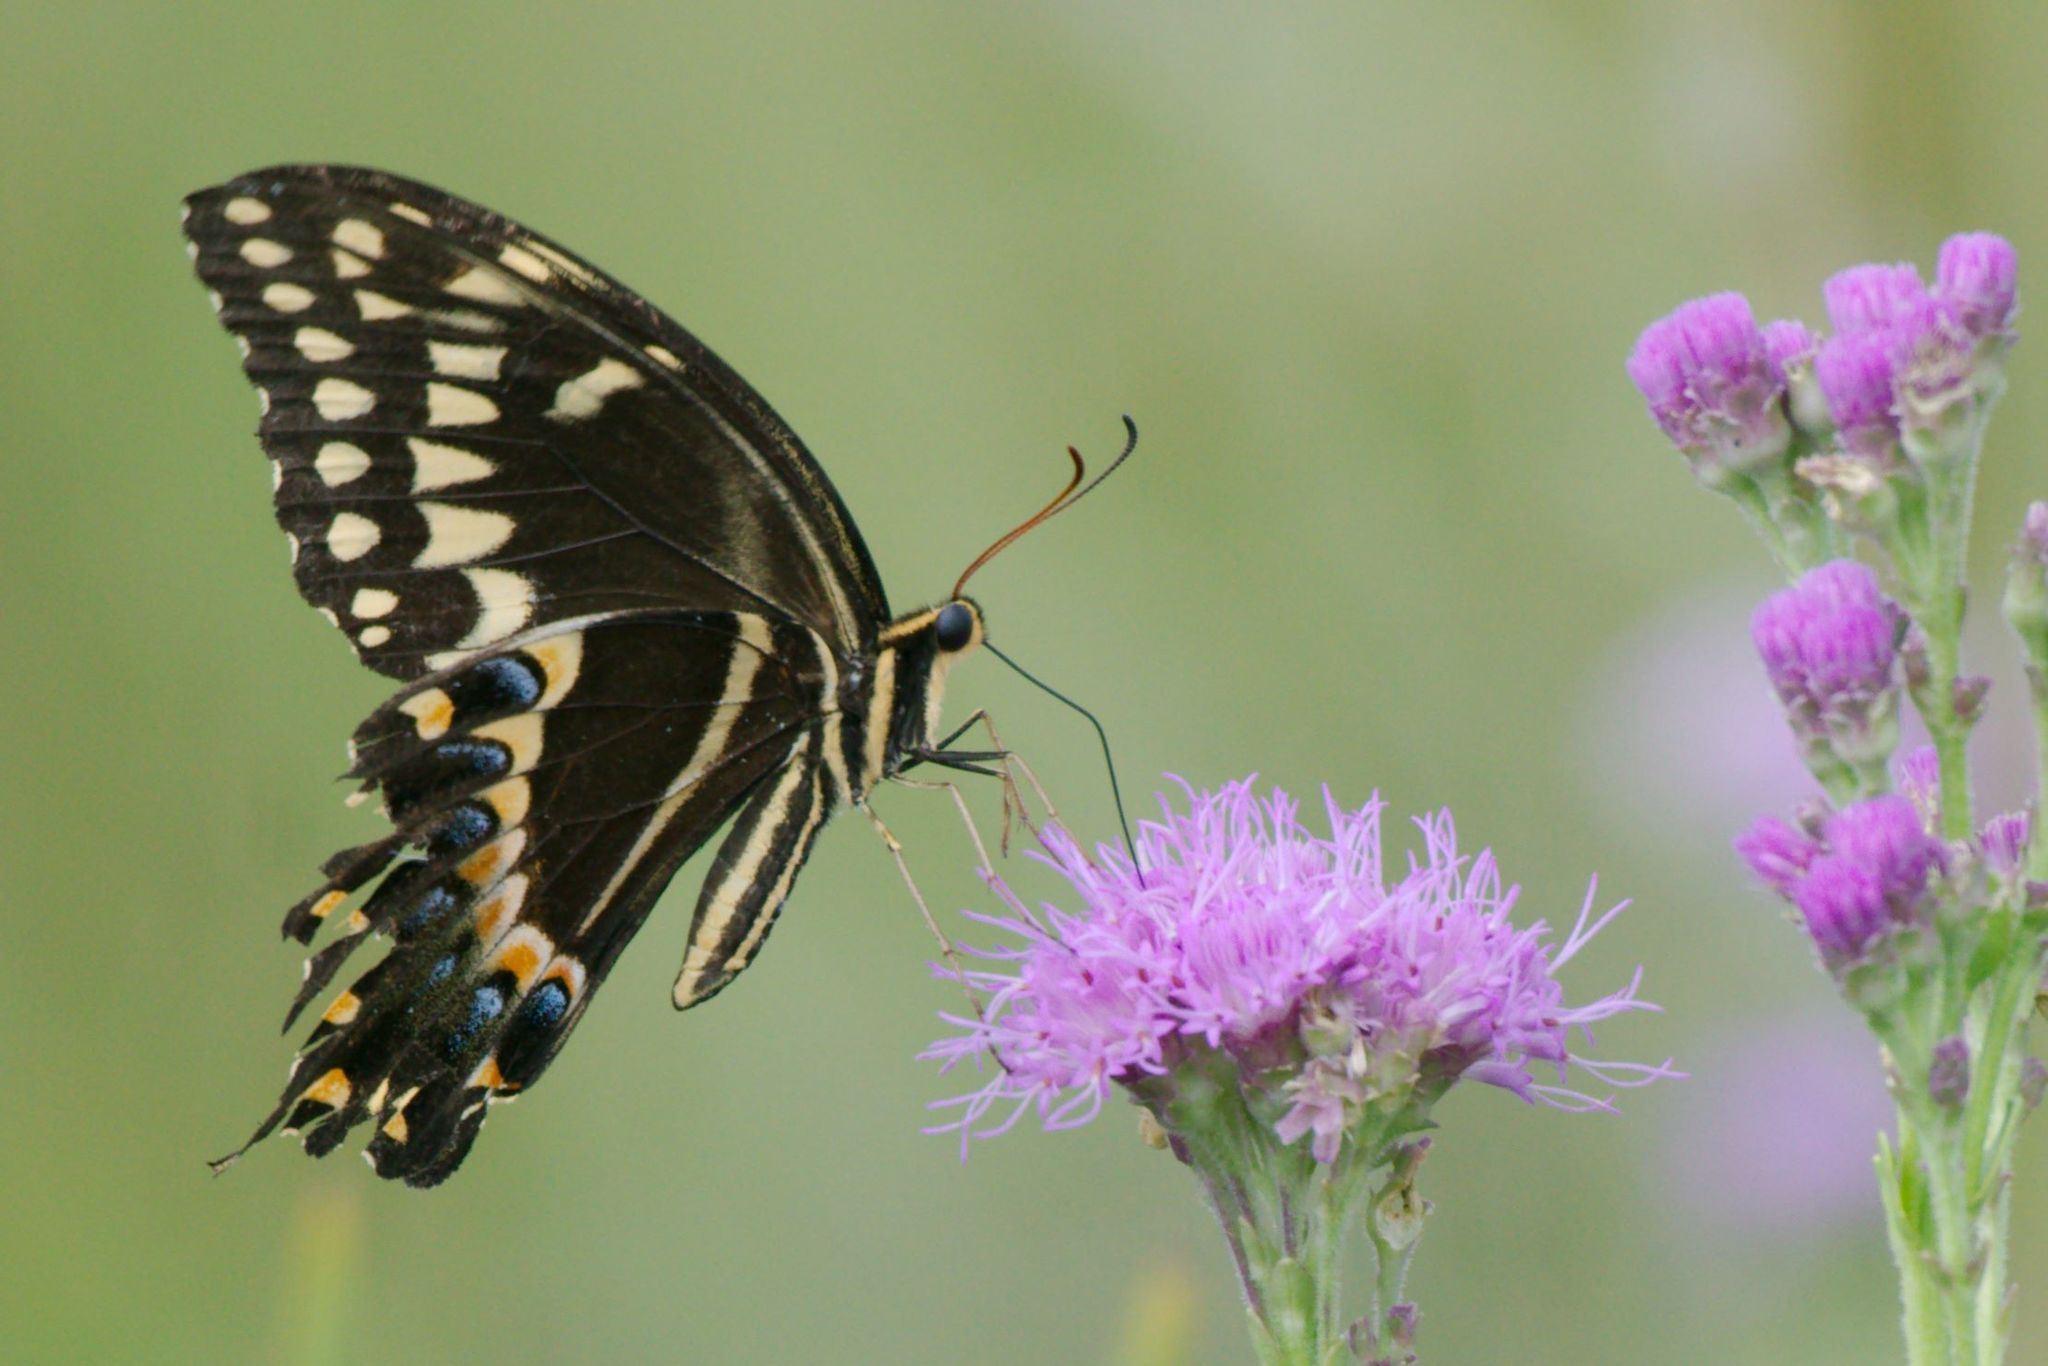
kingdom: Animalia
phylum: Arthropoda
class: Insecta
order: Lepidoptera
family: Papilionidae
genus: Papilio
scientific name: Papilio palamedes
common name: Palamedes swallowtail
